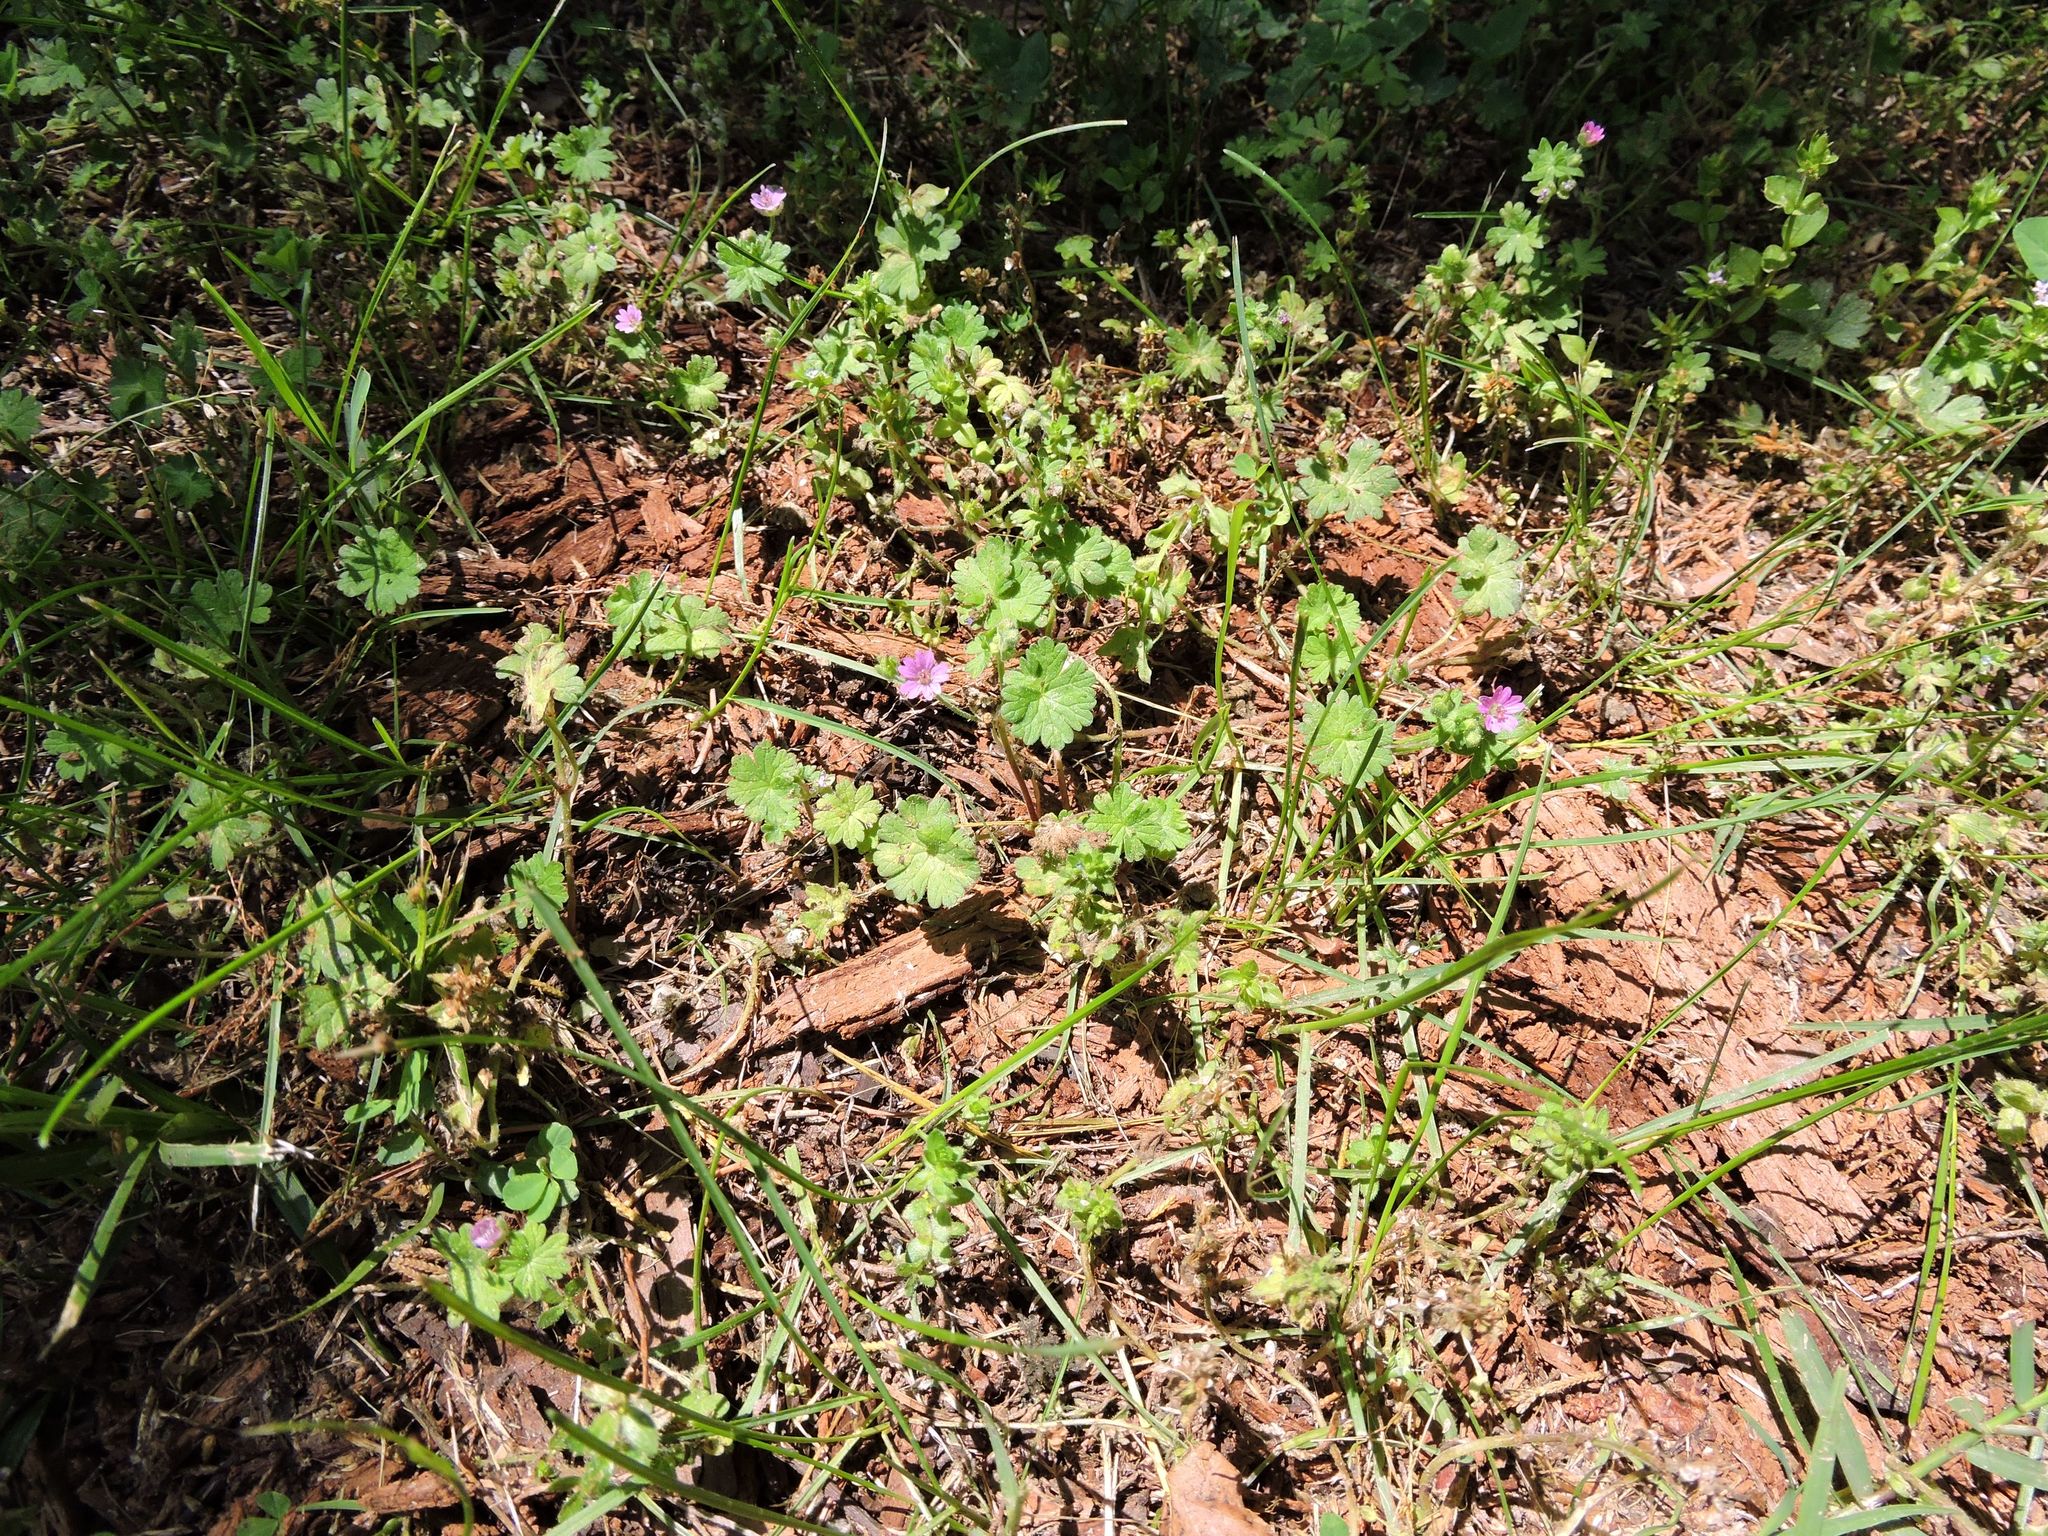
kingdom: Plantae
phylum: Tracheophyta
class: Magnoliopsida
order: Geraniales
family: Geraniaceae
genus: Geranium
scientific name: Geranium molle
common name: Dove's-foot crane's-bill
